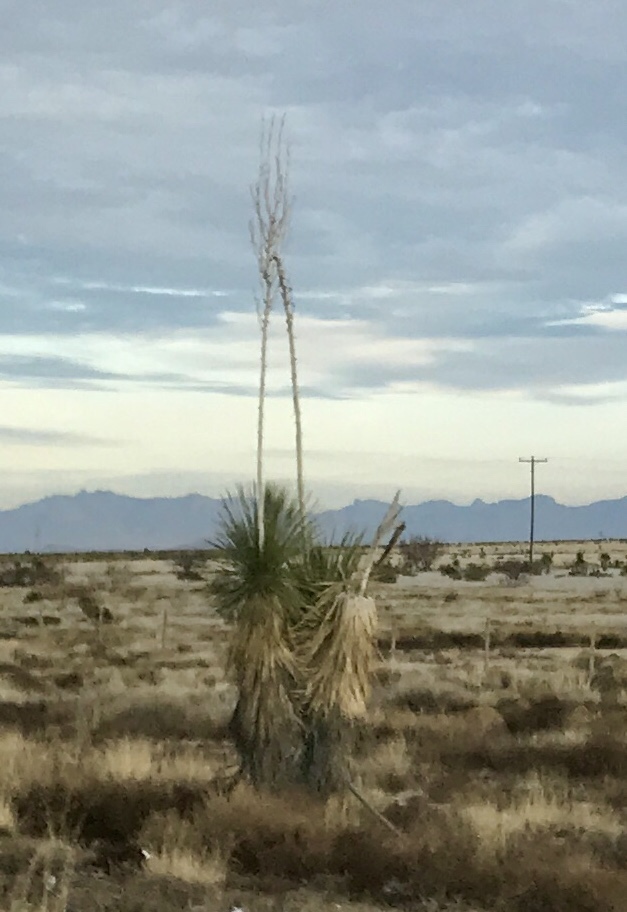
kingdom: Plantae
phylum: Tracheophyta
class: Liliopsida
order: Asparagales
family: Asparagaceae
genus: Yucca
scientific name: Yucca elata
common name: Palmella
